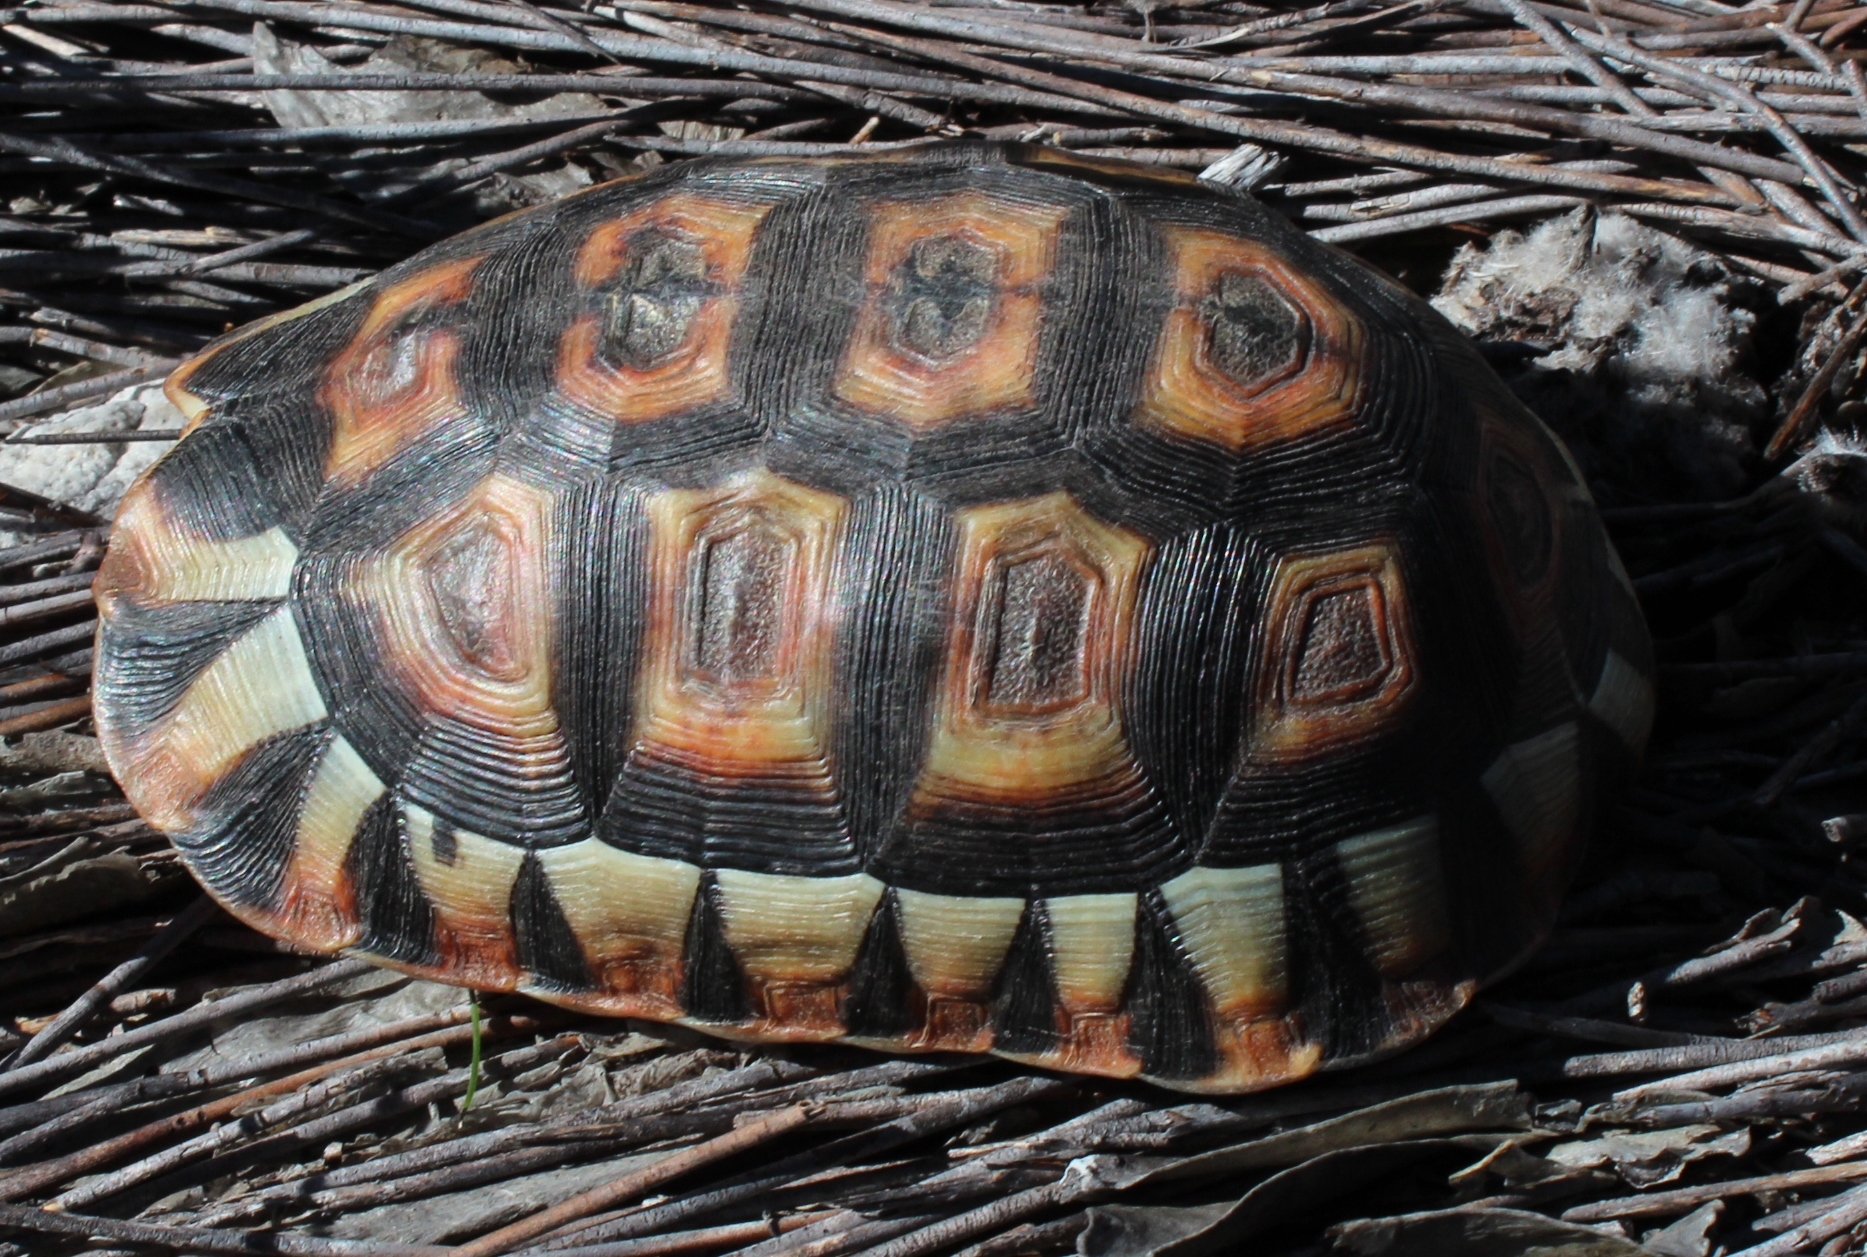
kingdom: Animalia
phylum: Chordata
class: Testudines
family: Testudinidae
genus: Chersina
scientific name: Chersina angulata
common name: South african bowsprit tortoise
